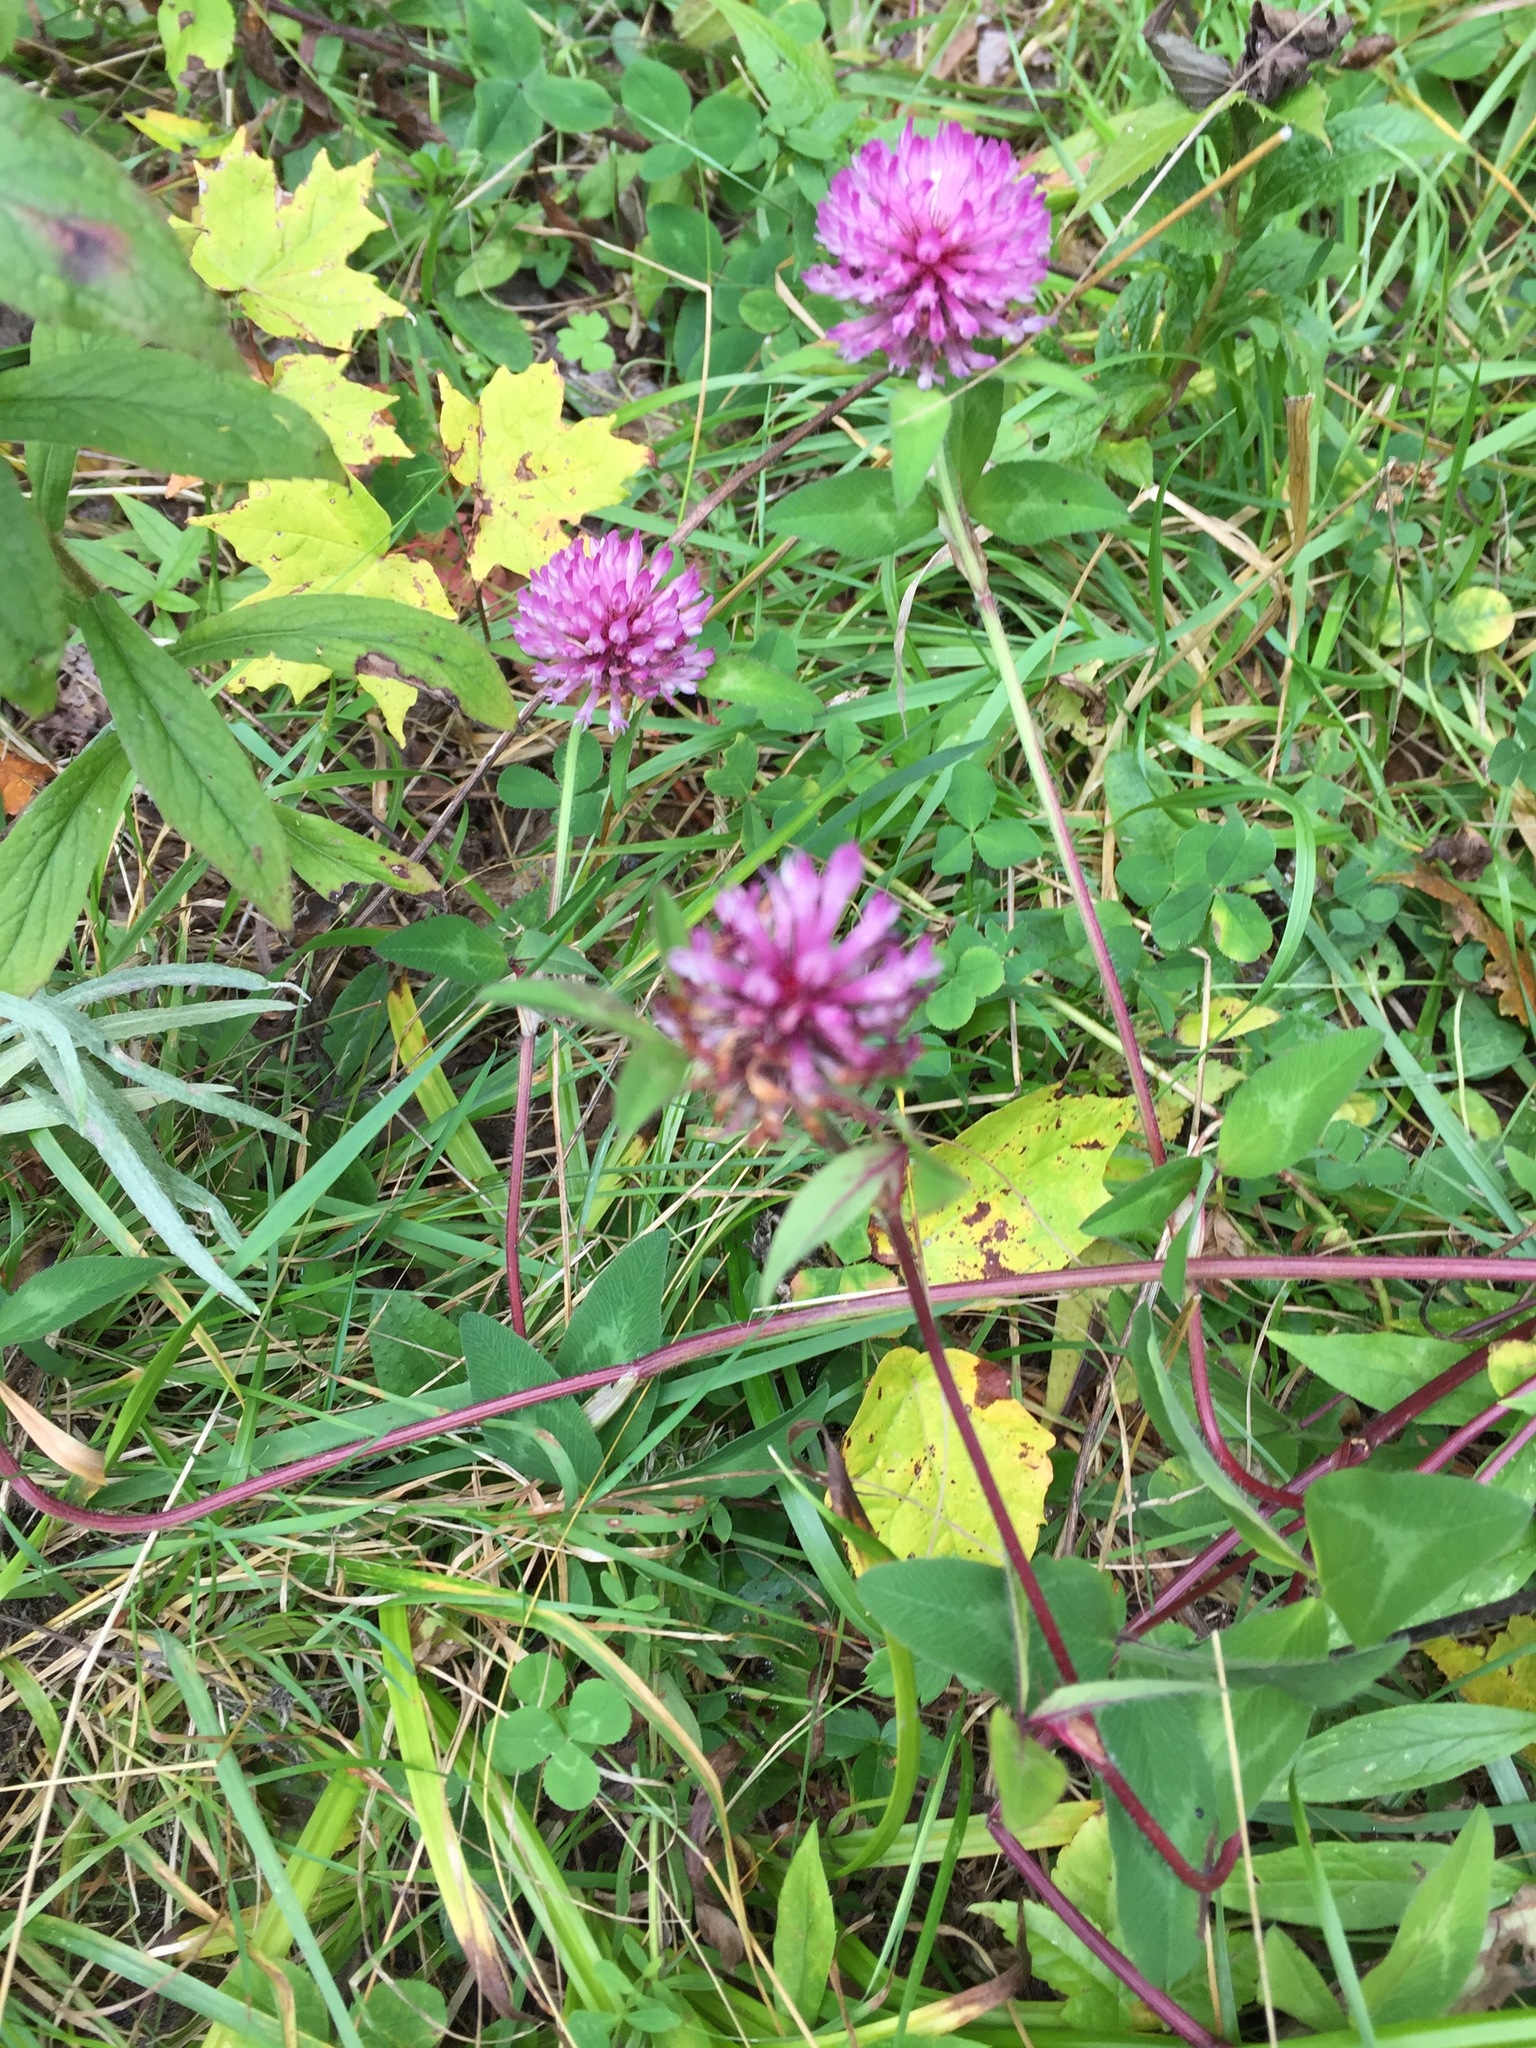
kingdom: Plantae
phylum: Tracheophyta
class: Magnoliopsida
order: Fabales
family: Fabaceae
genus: Trifolium
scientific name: Trifolium pratense
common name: Red clover
